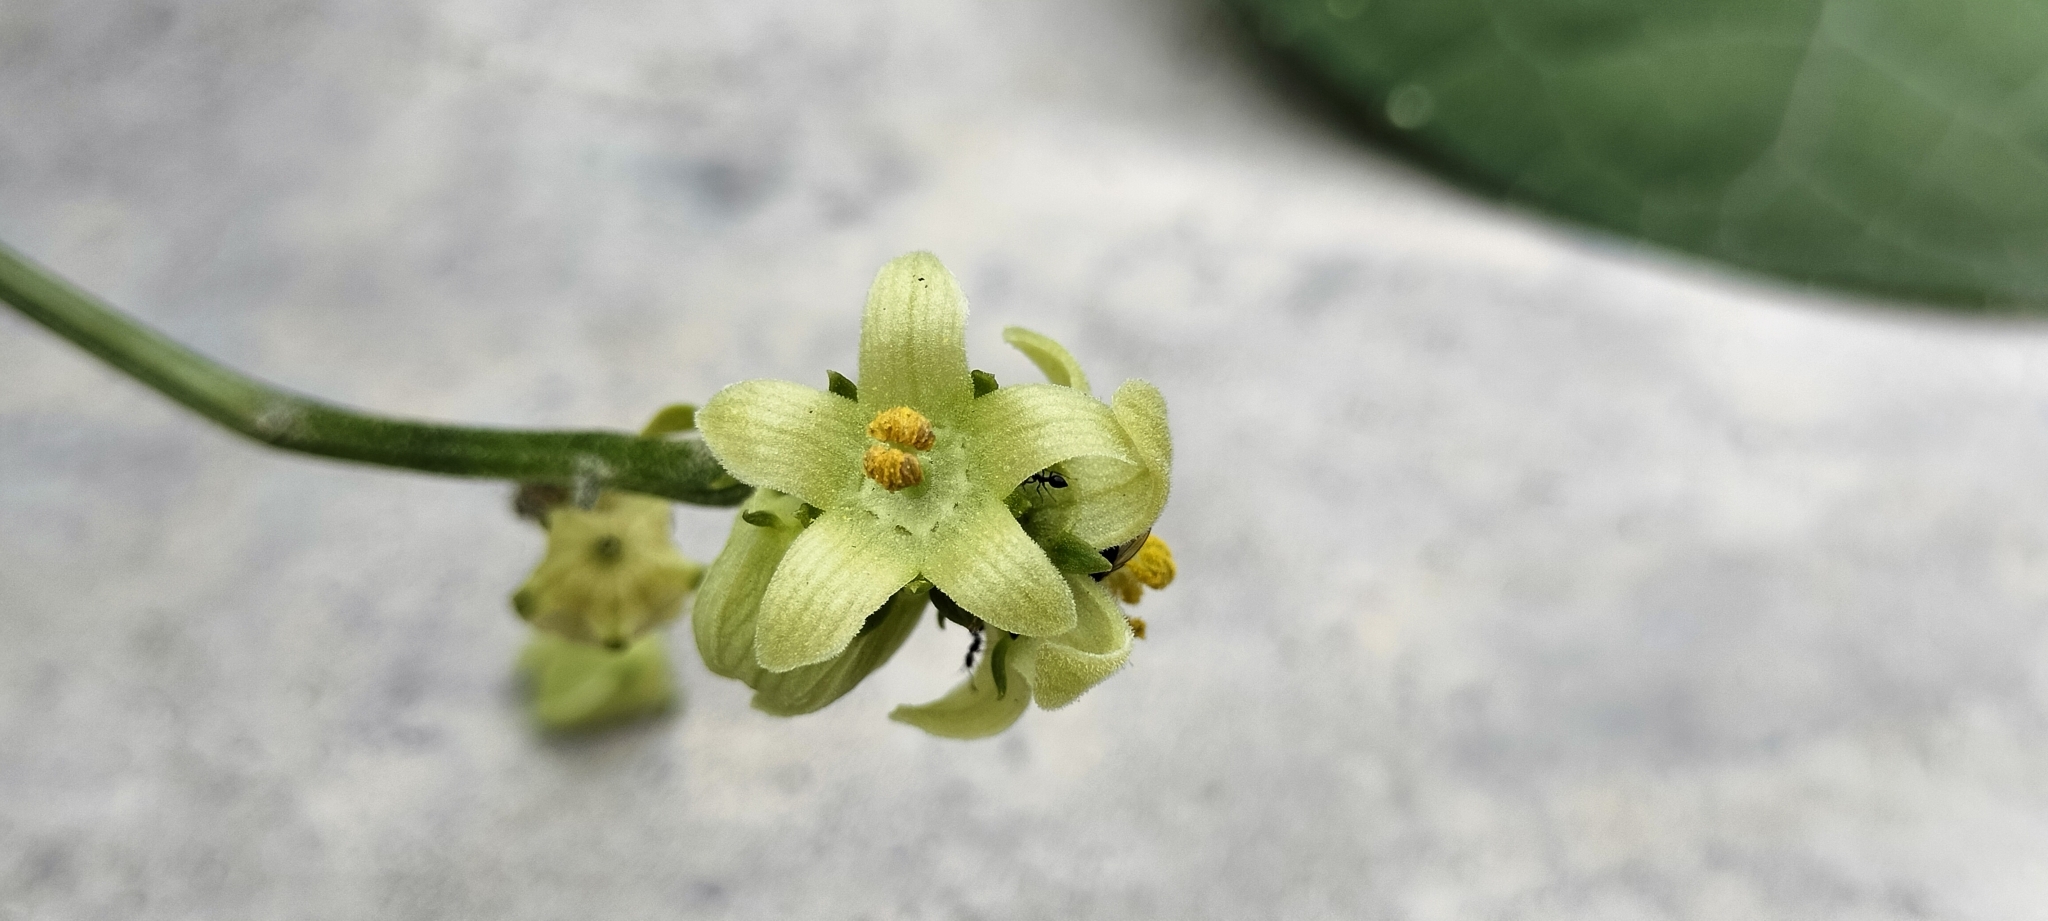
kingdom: Plantae
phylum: Tracheophyta
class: Magnoliopsida
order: Cucurbitales
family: Cucurbitaceae
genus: Sechium
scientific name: Sechium edule
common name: Chayote
